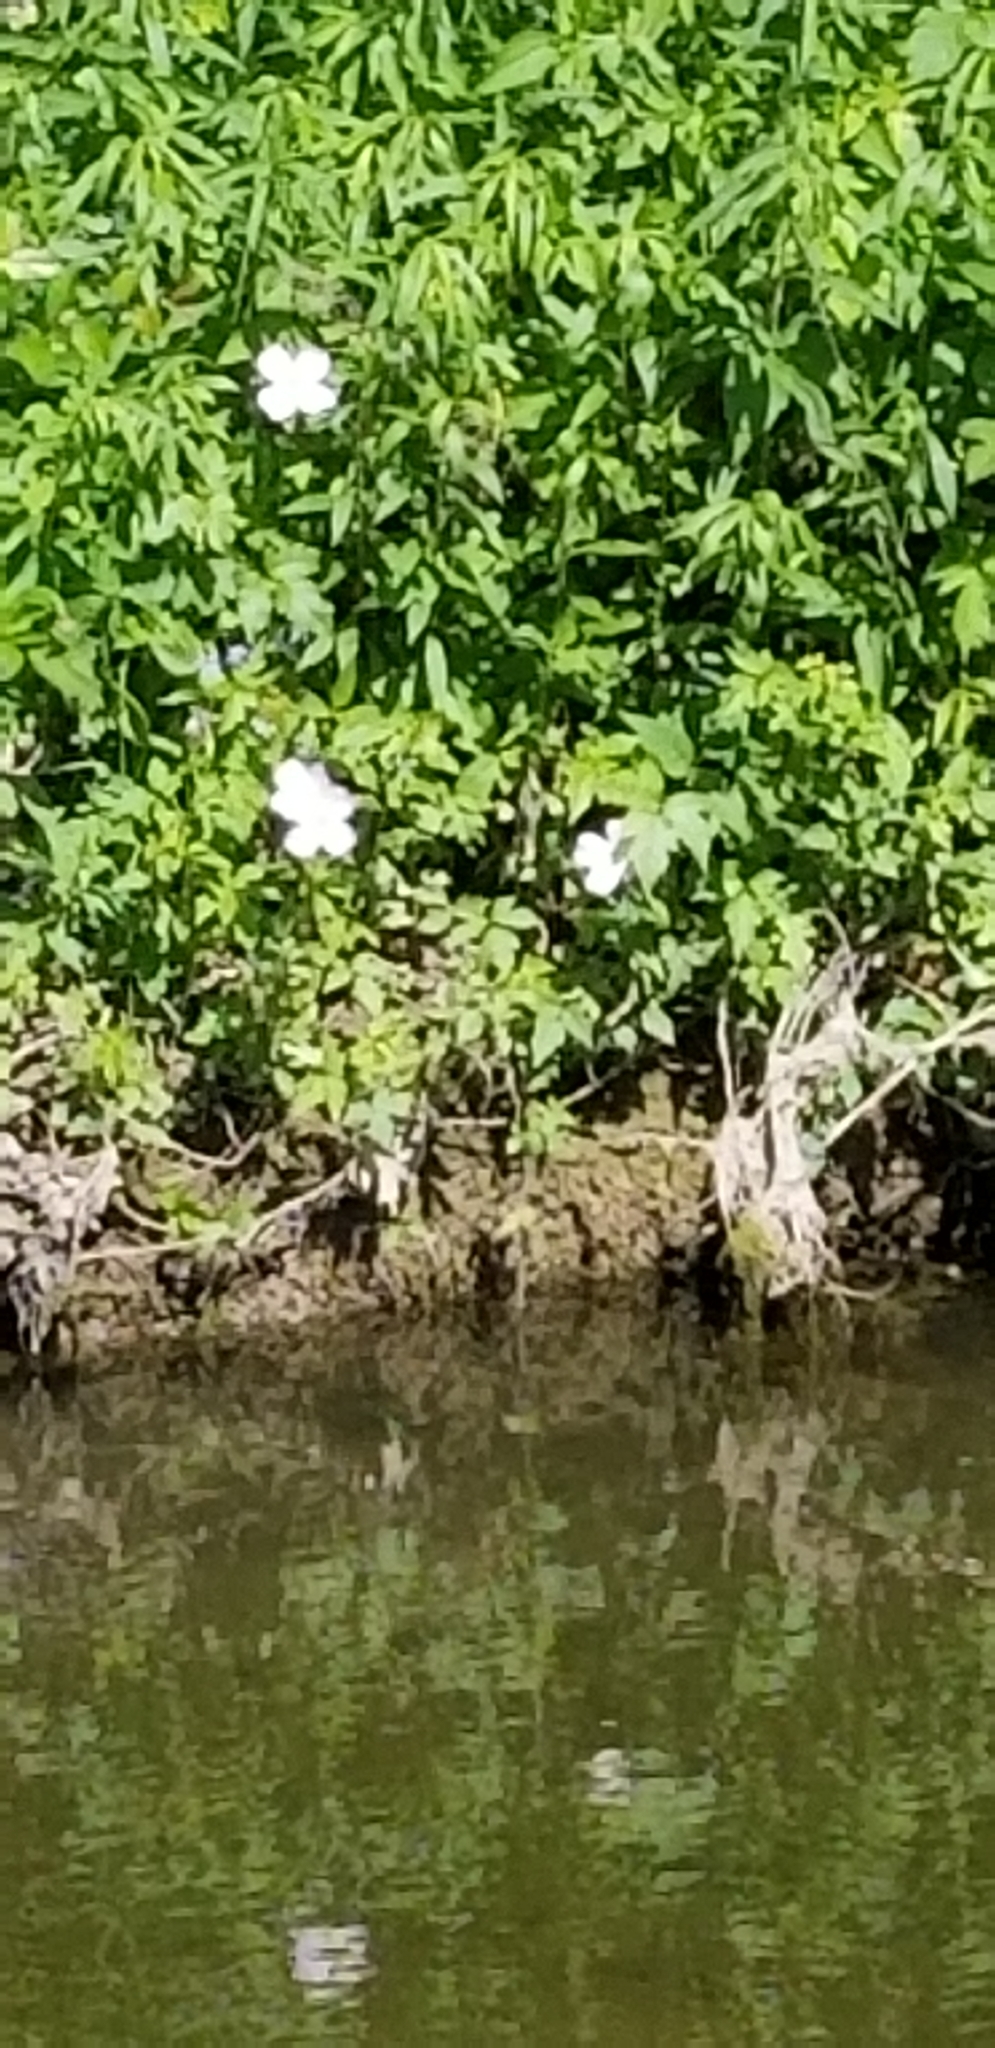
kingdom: Plantae
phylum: Tracheophyta
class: Magnoliopsida
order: Myrtales
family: Onagraceae
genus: Oenothera
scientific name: Oenothera speciosa
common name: White evening-primrose
